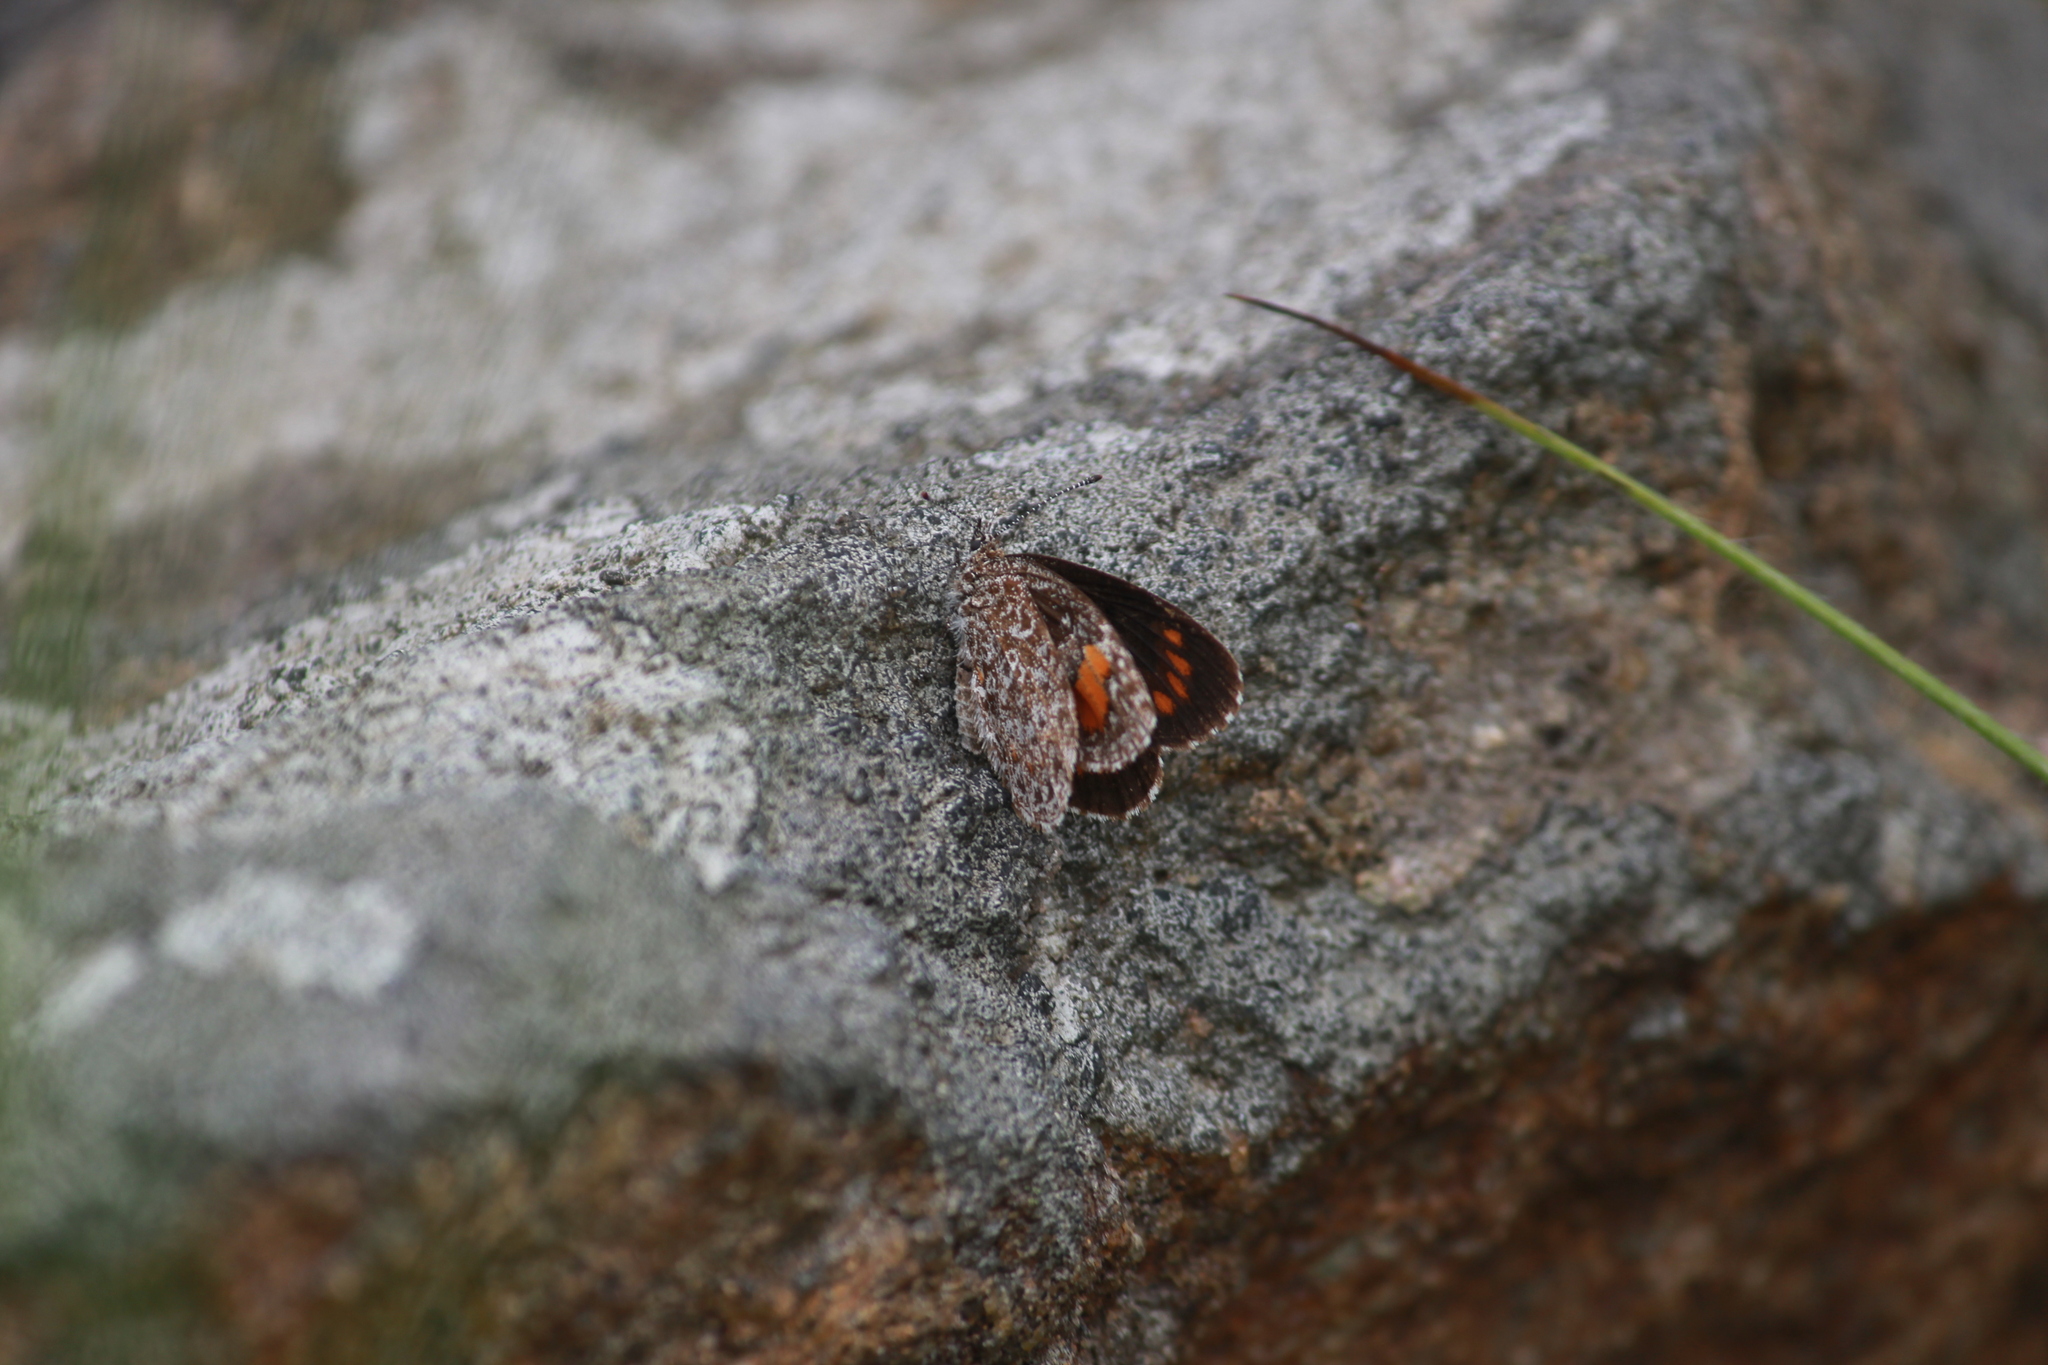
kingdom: Animalia
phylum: Arthropoda
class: Insecta
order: Lepidoptera
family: Lycaenidae
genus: Durbania
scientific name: Durbania amakosa
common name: Amakosa rocksitter
